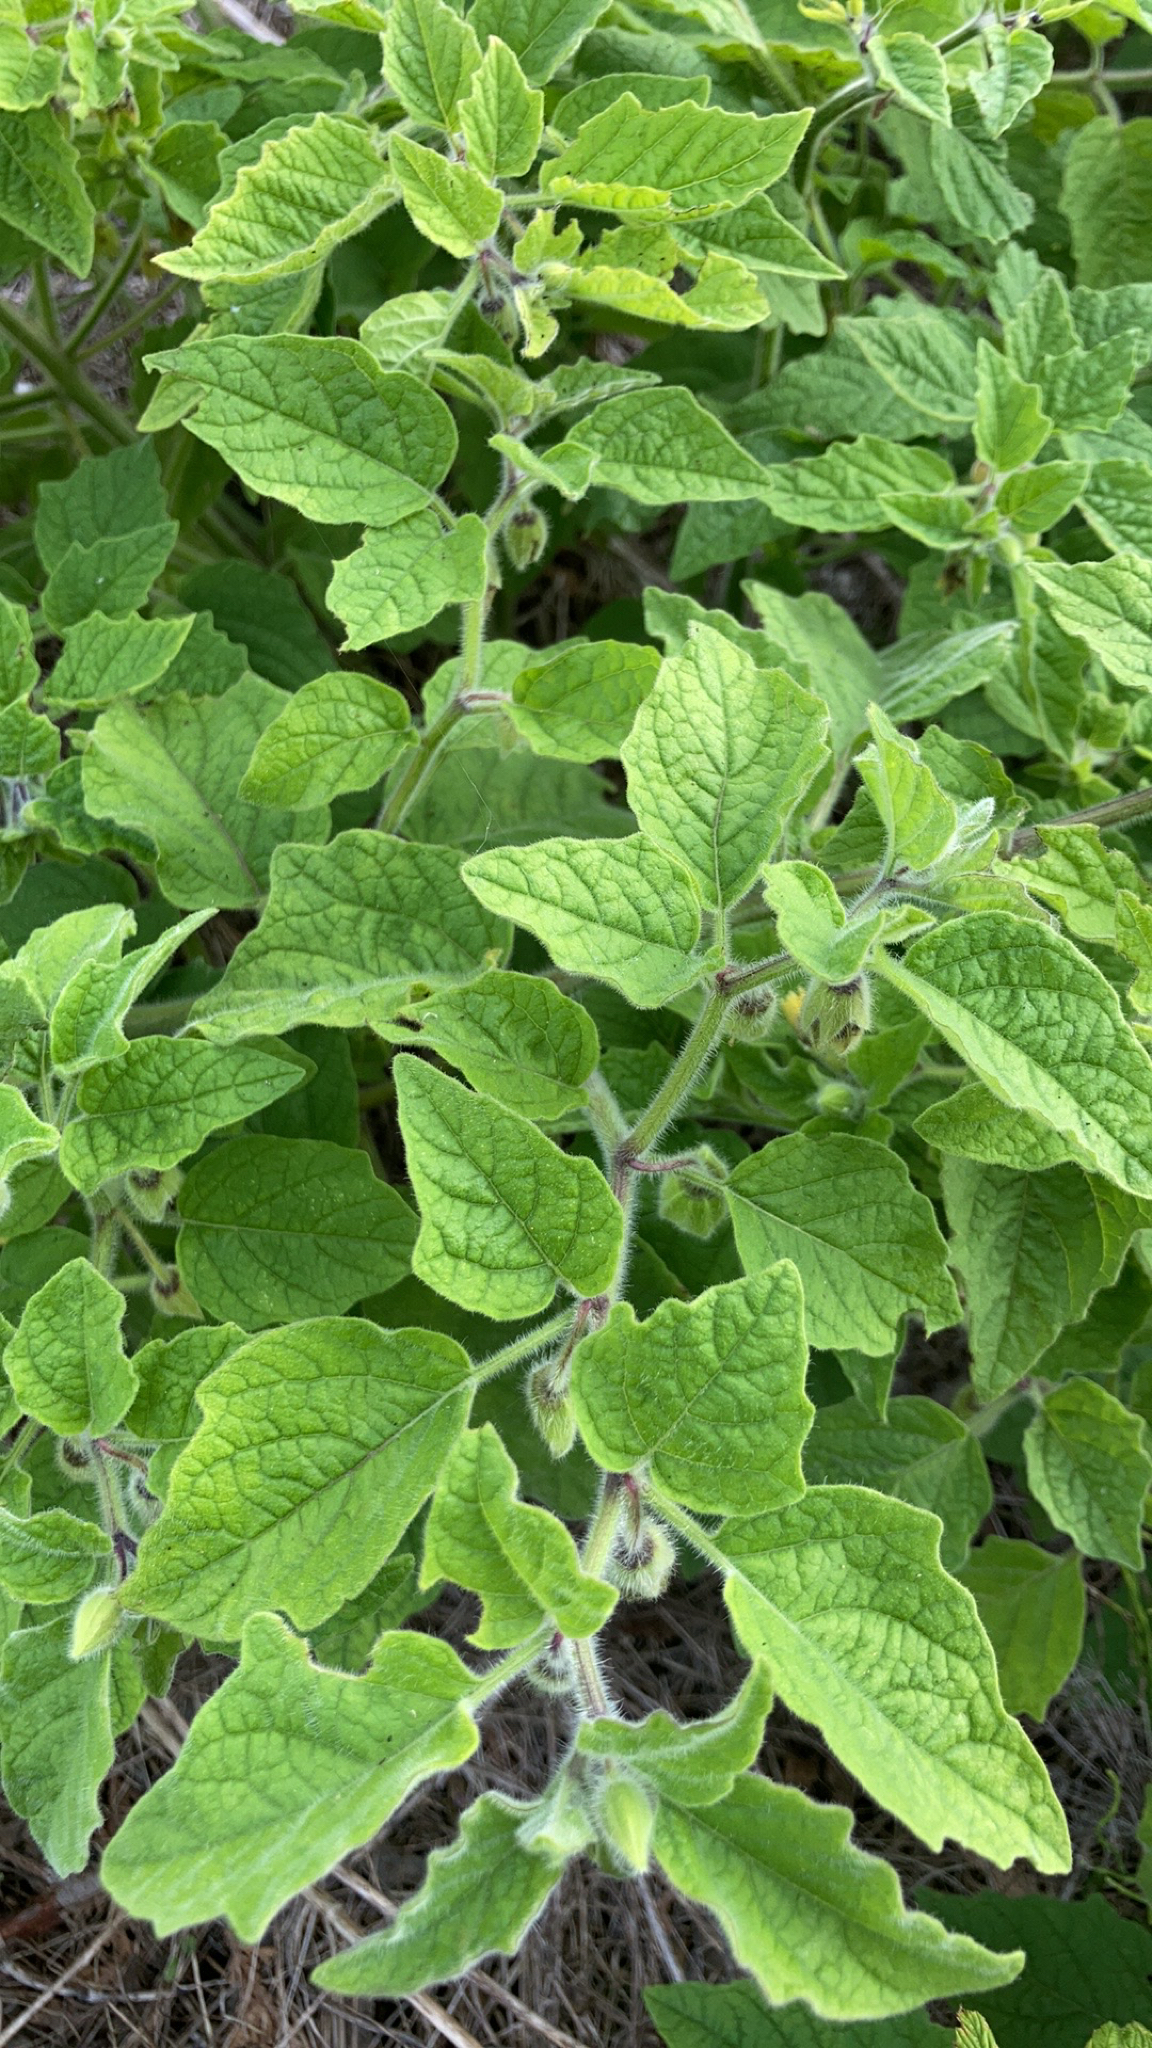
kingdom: Plantae
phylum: Tracheophyta
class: Magnoliopsida
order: Solanales
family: Solanaceae
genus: Physalis
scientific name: Physalis heterophylla
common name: Clammy ground-cherry
